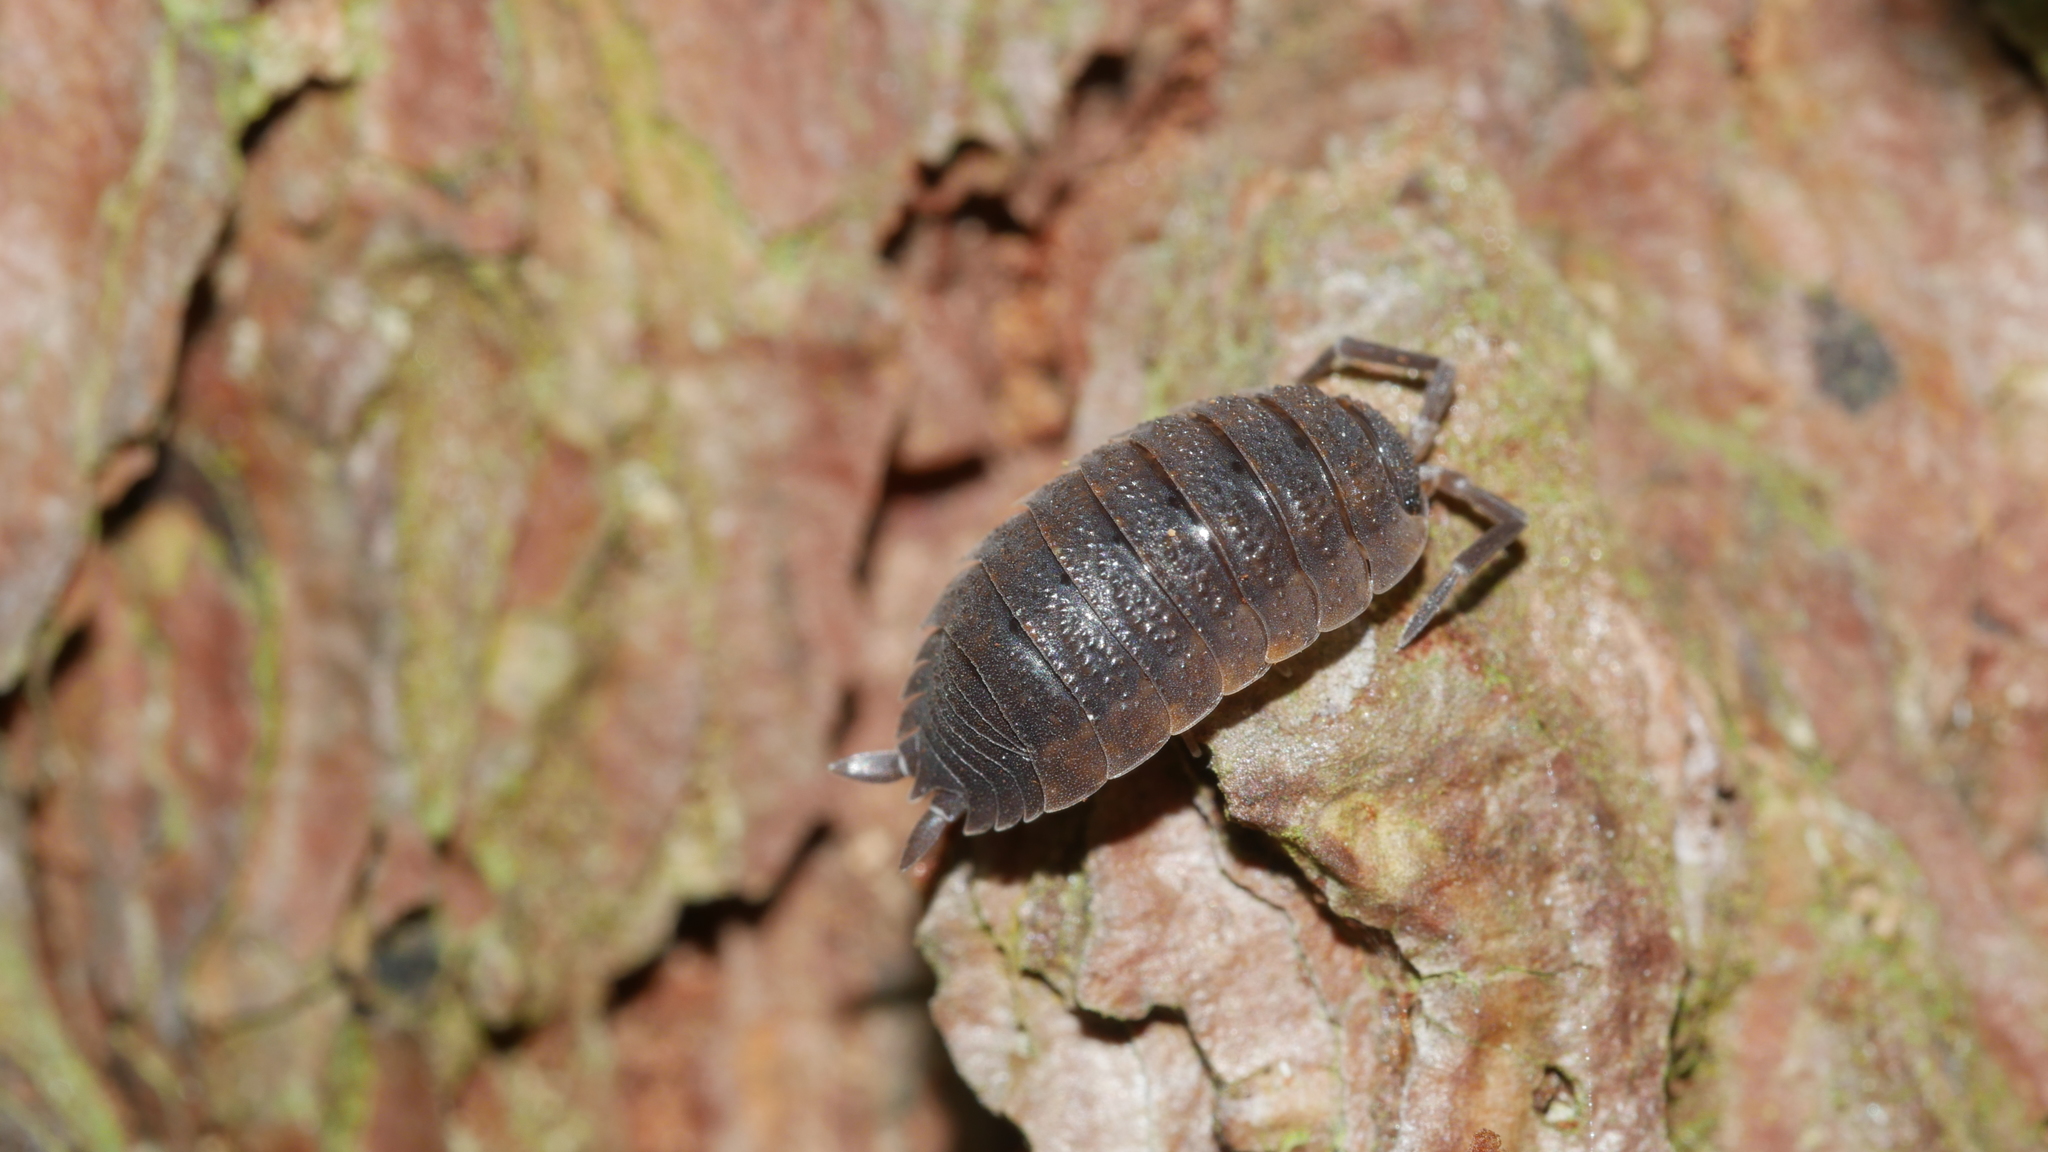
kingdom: Animalia
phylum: Arthropoda
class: Malacostraca
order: Isopoda
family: Porcellionidae
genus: Porcellio
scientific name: Porcellio scaber
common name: Common rough woodlouse
